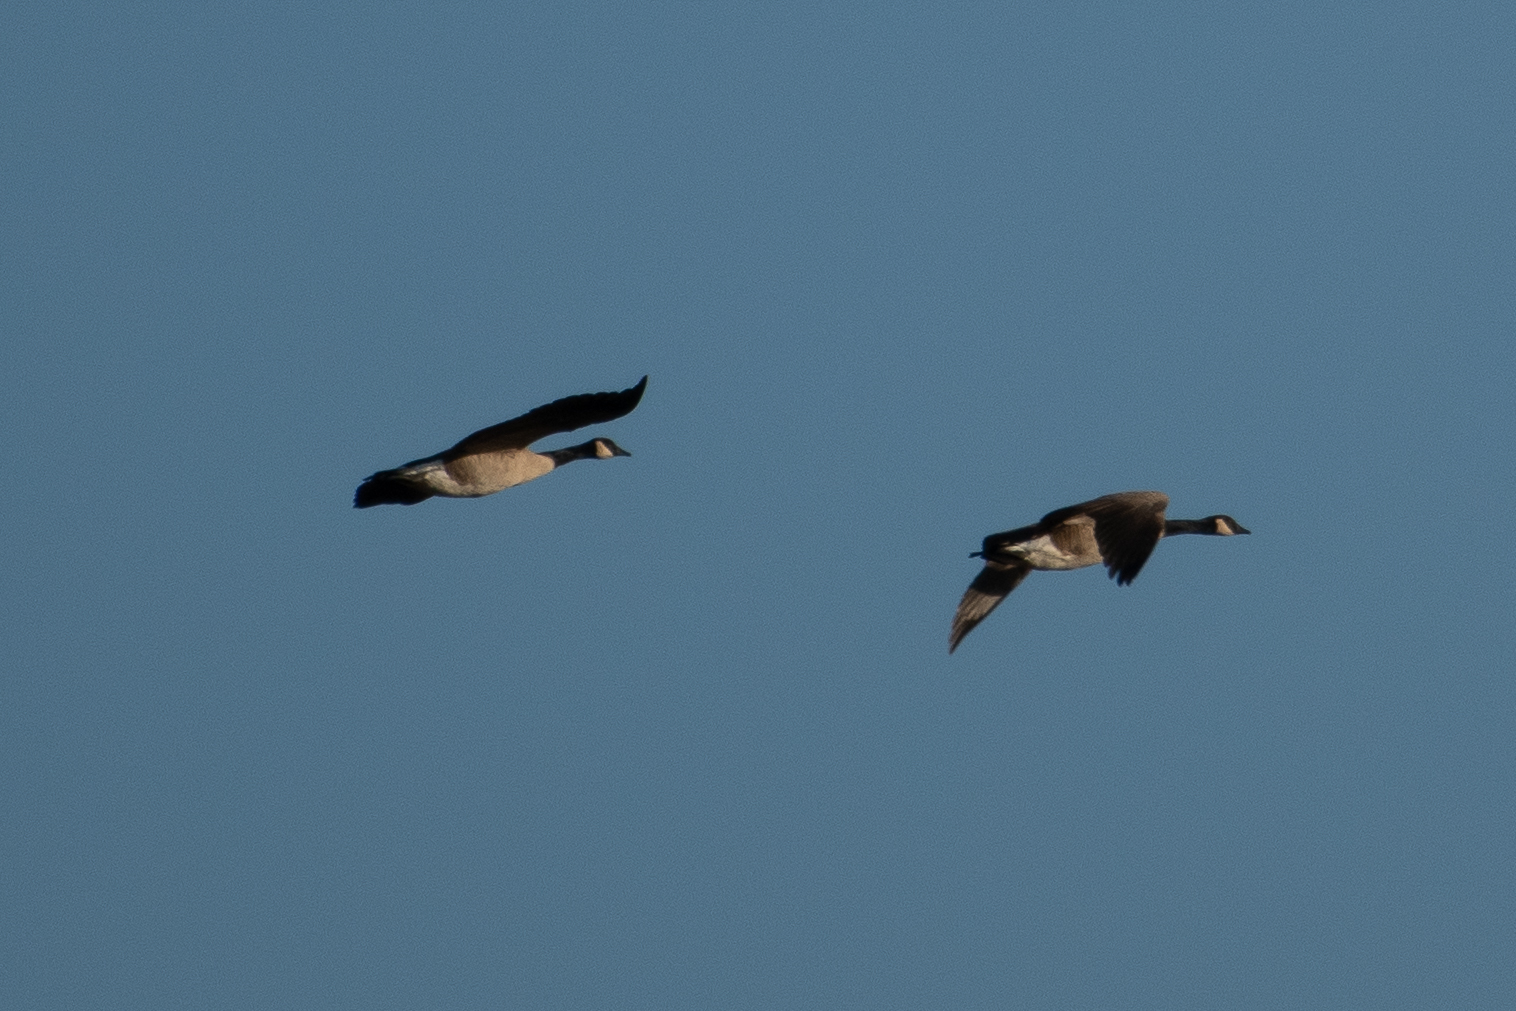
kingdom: Animalia
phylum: Chordata
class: Aves
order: Anseriformes
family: Anatidae
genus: Branta
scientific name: Branta canadensis
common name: Canada goose
